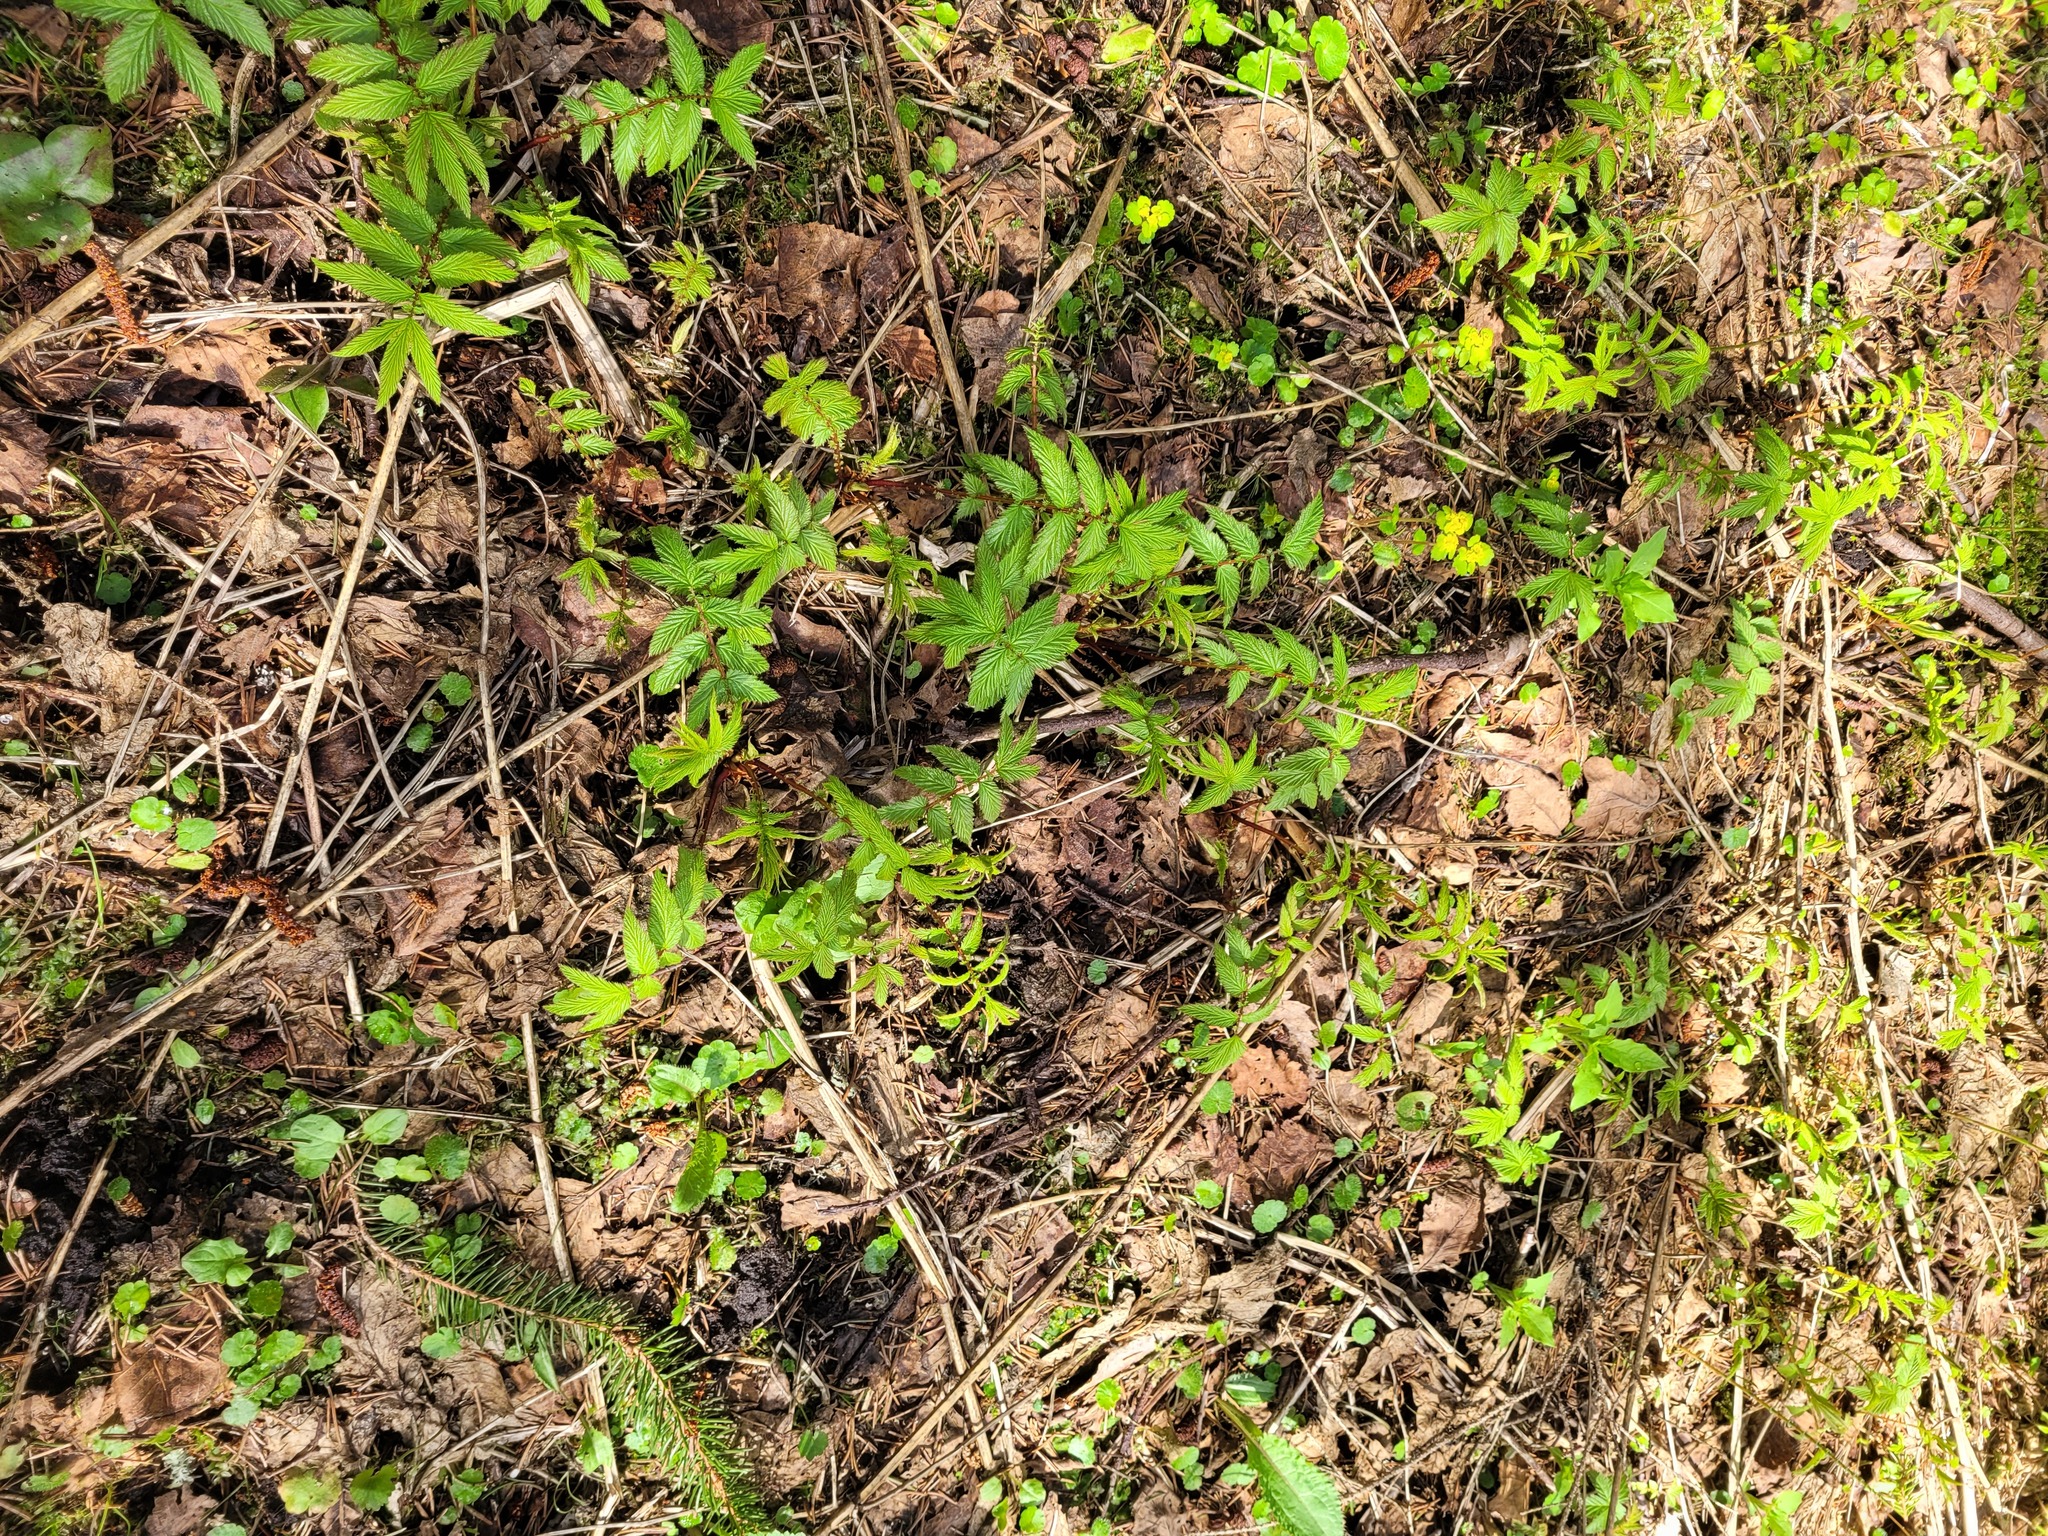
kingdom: Plantae
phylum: Tracheophyta
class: Magnoliopsida
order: Rosales
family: Rosaceae
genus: Filipendula
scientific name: Filipendula ulmaria
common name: Meadowsweet
